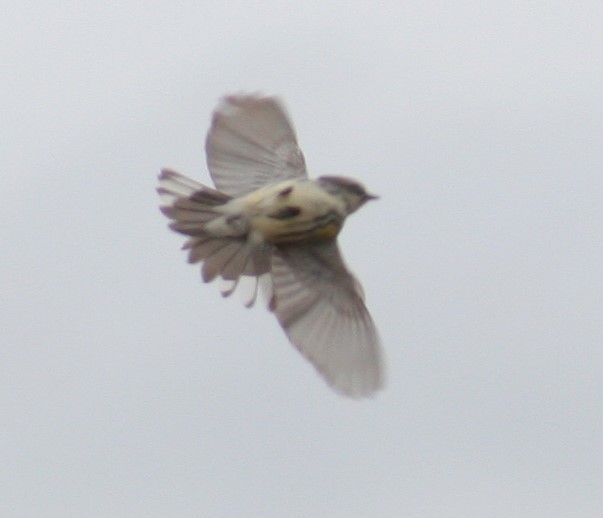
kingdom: Animalia
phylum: Chordata
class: Aves
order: Passeriformes
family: Parulidae
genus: Setophaga
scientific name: Setophaga coronata
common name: Myrtle warbler
